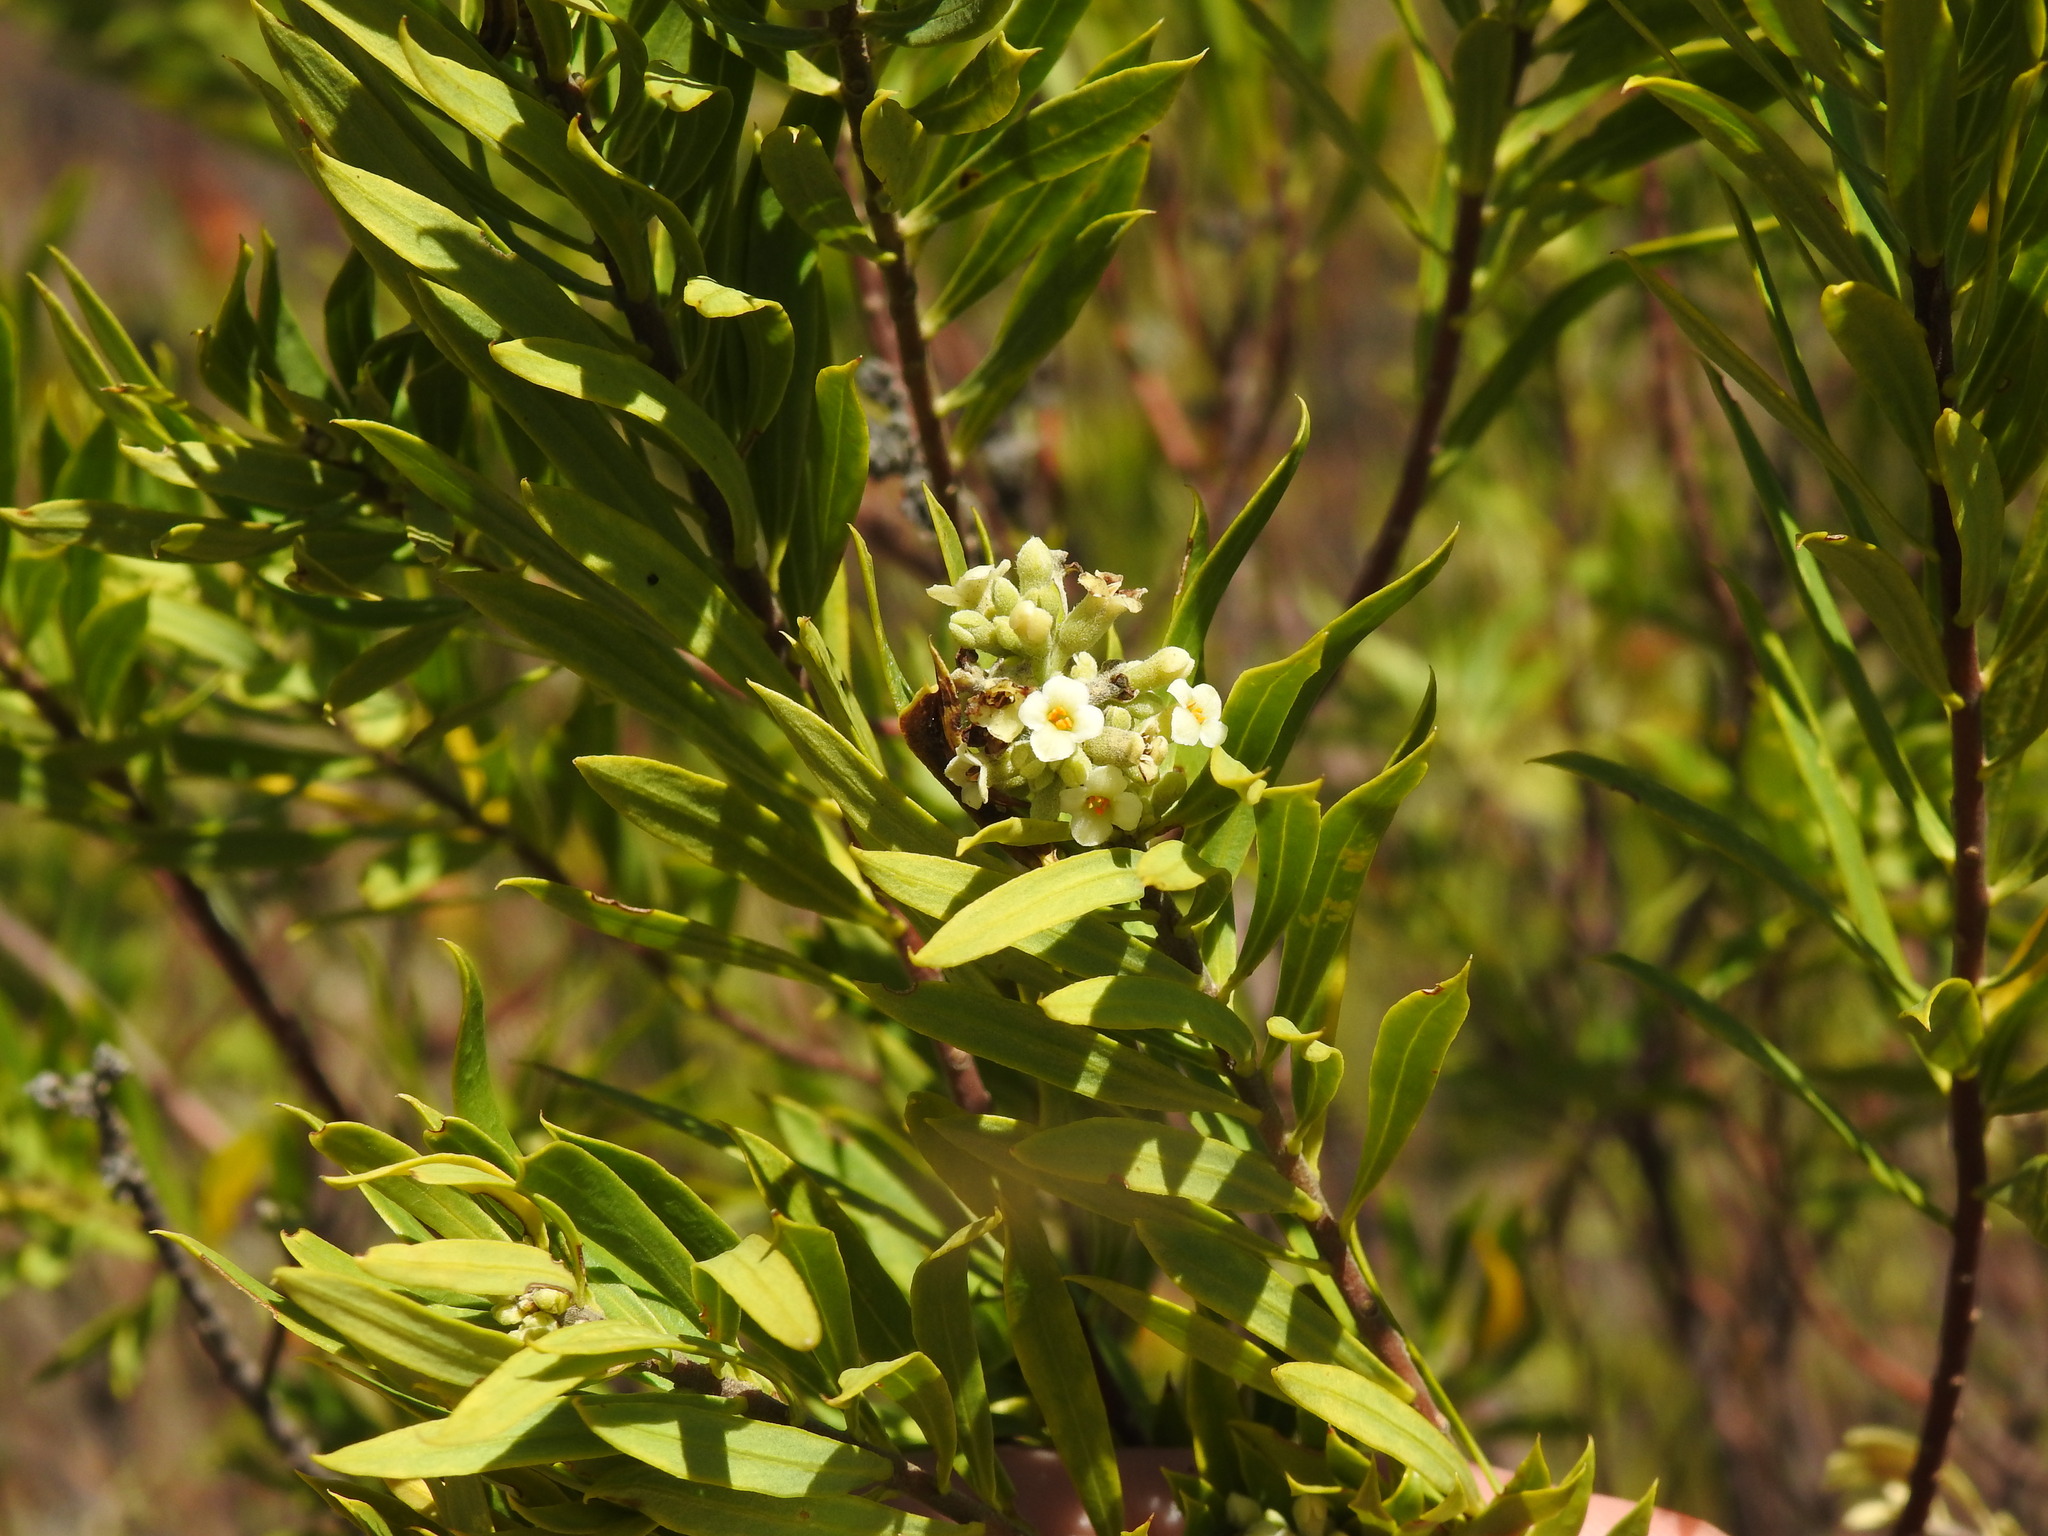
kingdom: Plantae
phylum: Tracheophyta
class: Magnoliopsida
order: Malvales
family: Thymelaeaceae
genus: Daphne
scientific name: Daphne gnidium
